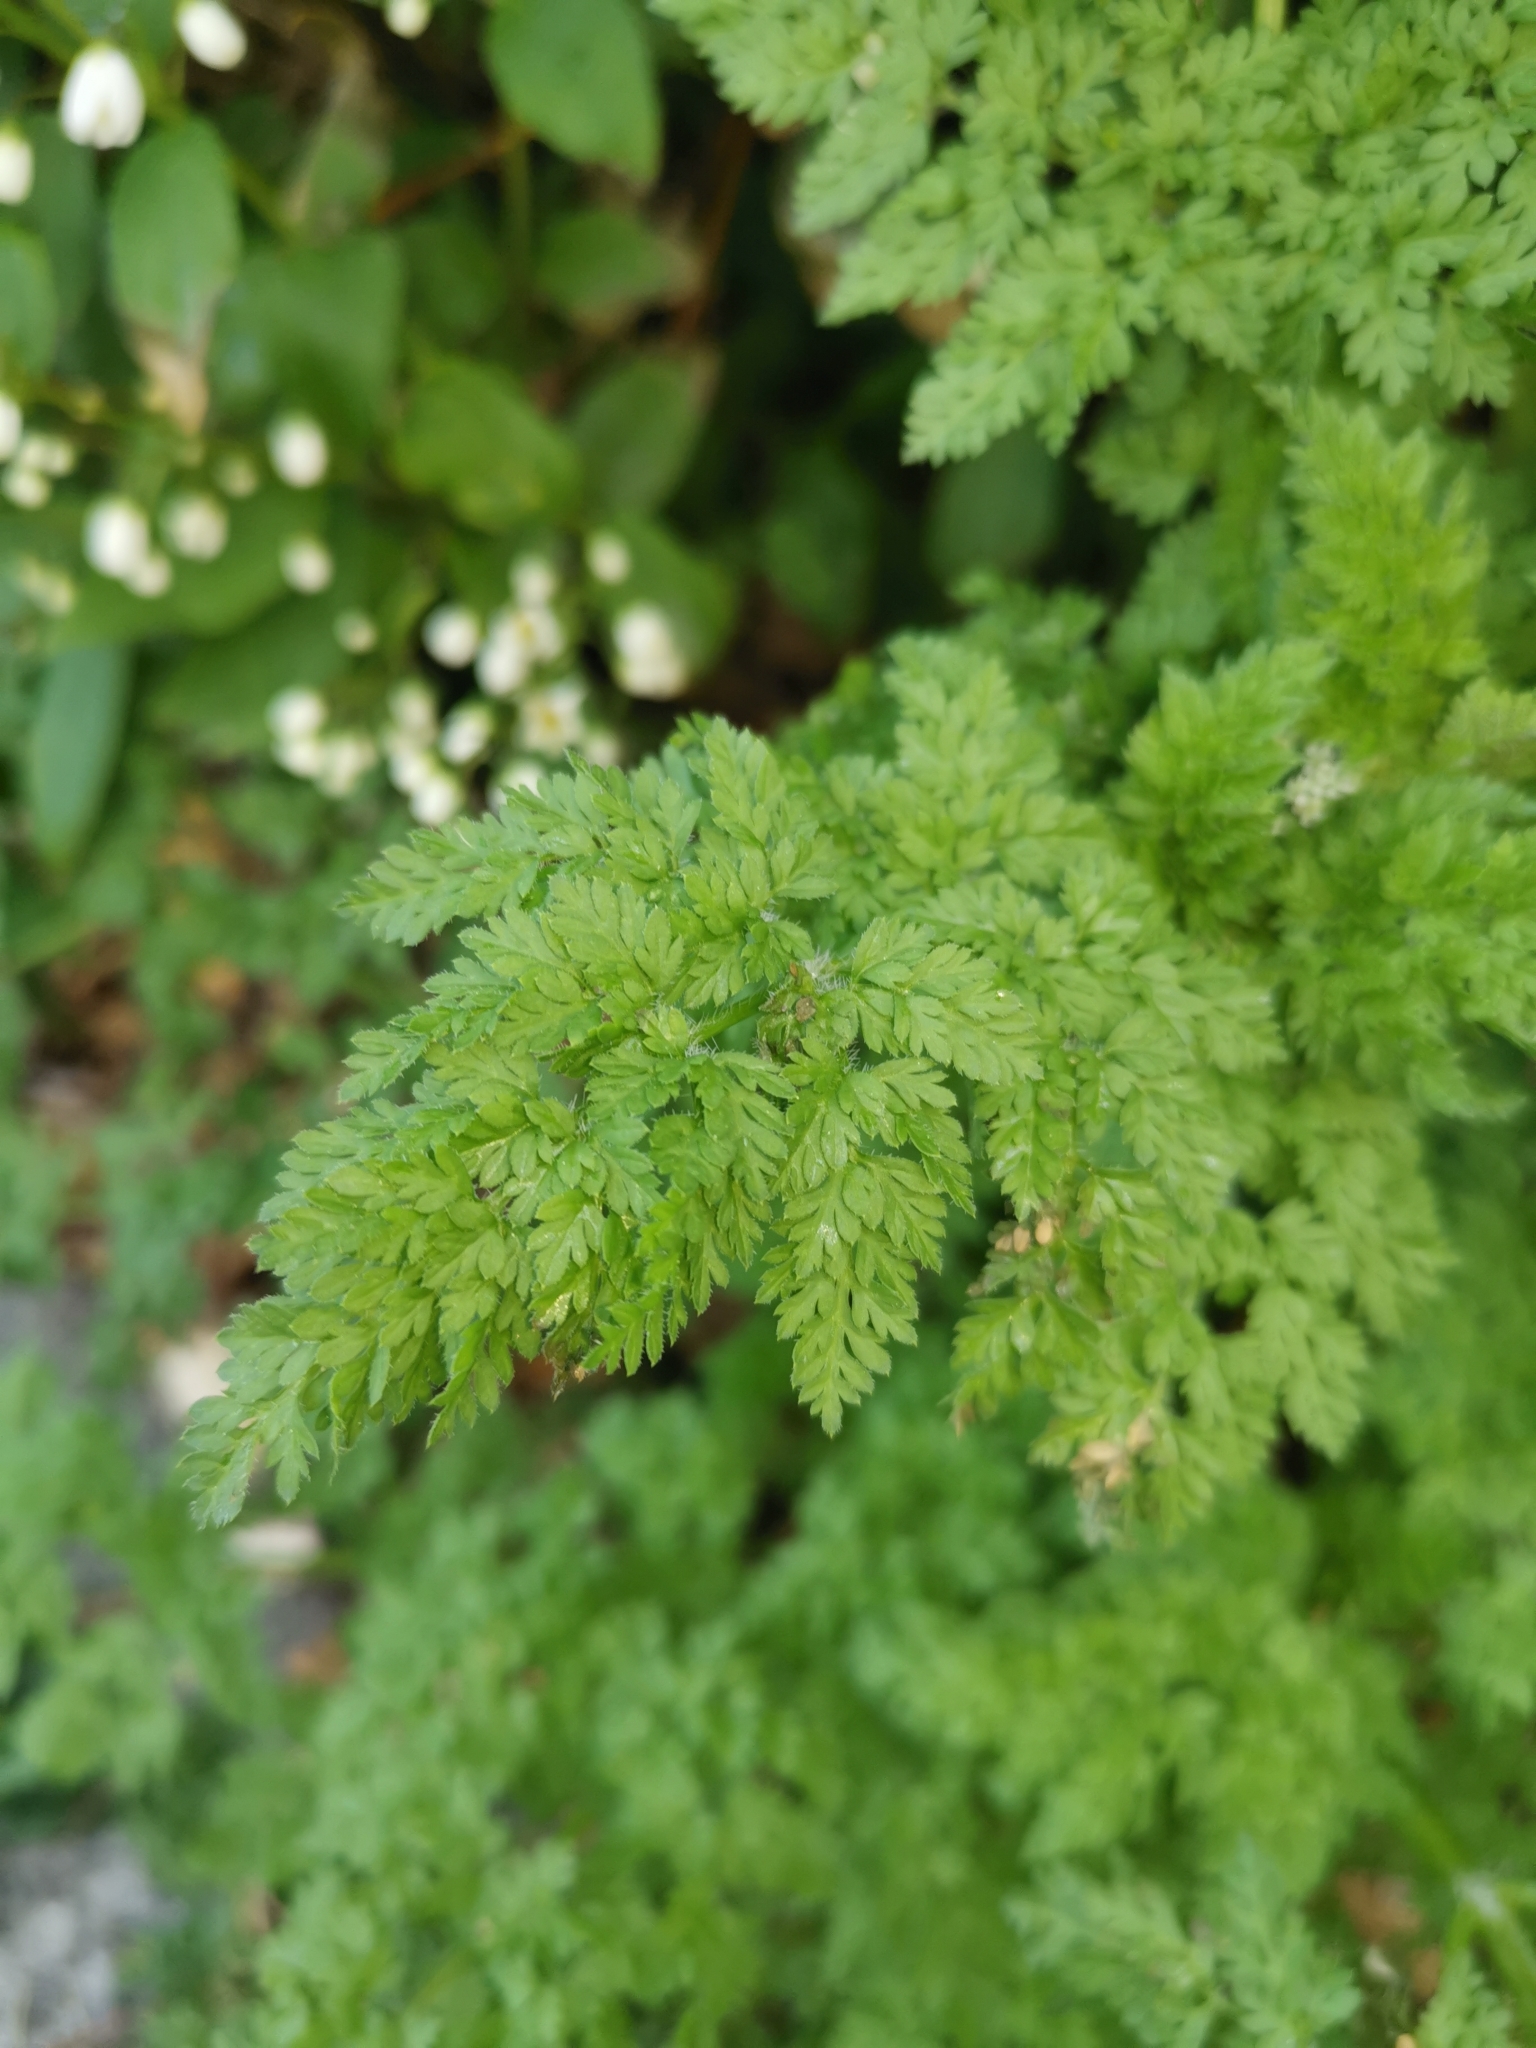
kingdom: Plantae
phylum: Tracheophyta
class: Magnoliopsida
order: Apiales
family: Apiaceae
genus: Anthriscus
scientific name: Anthriscus caucalis
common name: Bur chervil
